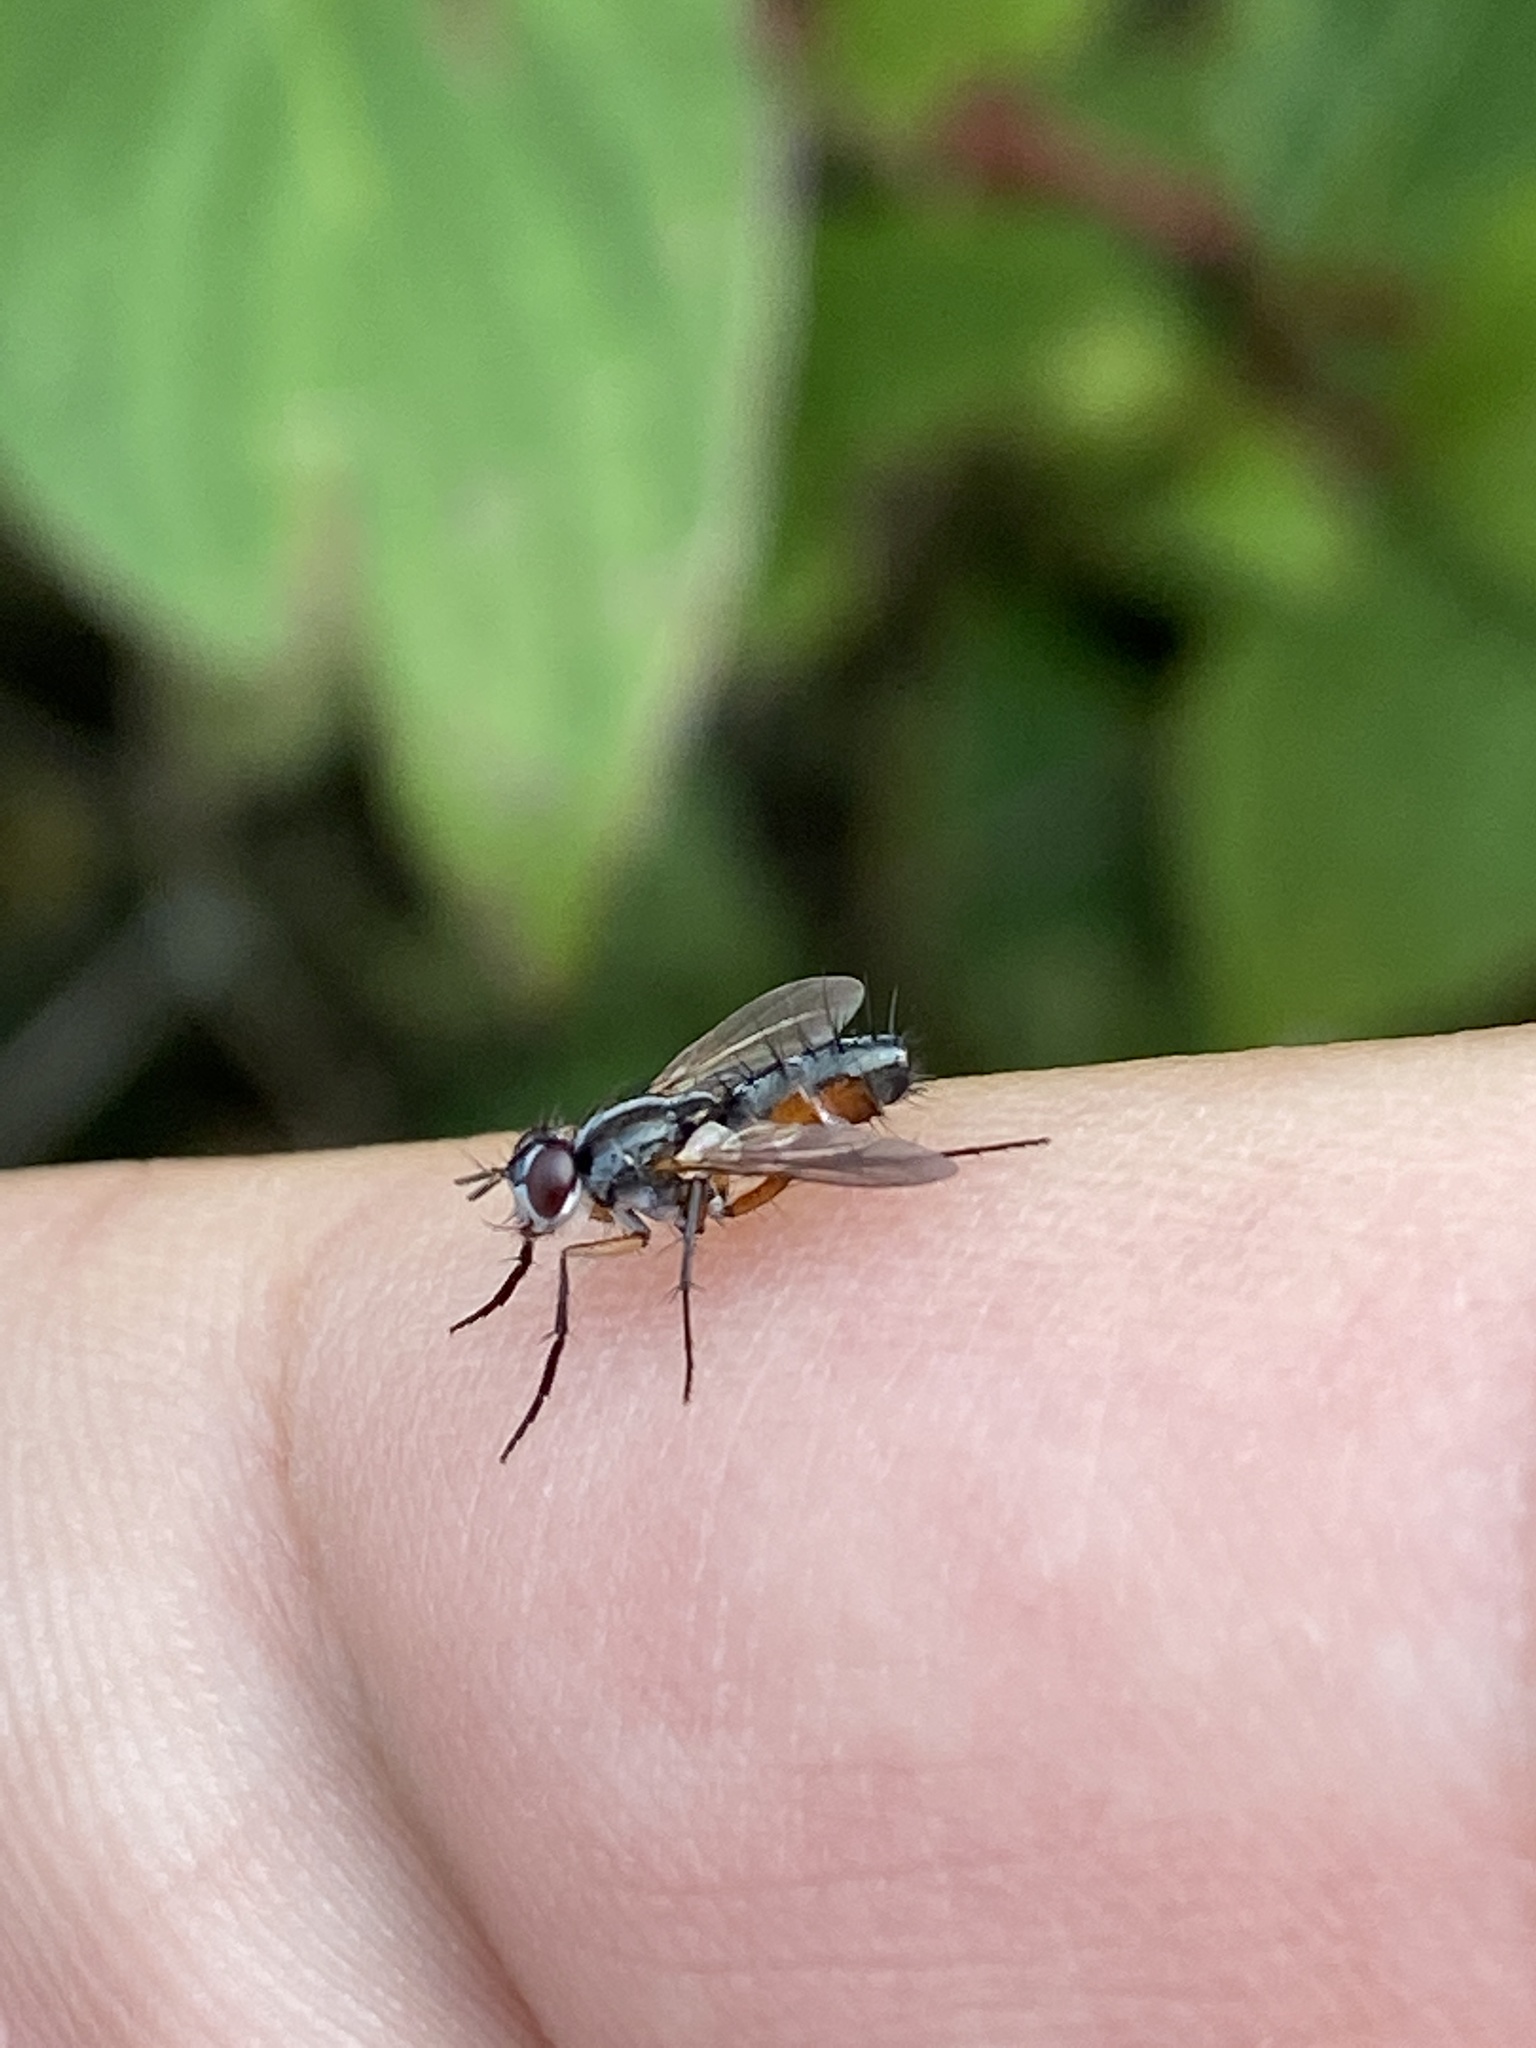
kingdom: Animalia
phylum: Arthropoda
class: Insecta
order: Diptera
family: Tachinidae
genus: Mintho
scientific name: Mintho rufiventris
